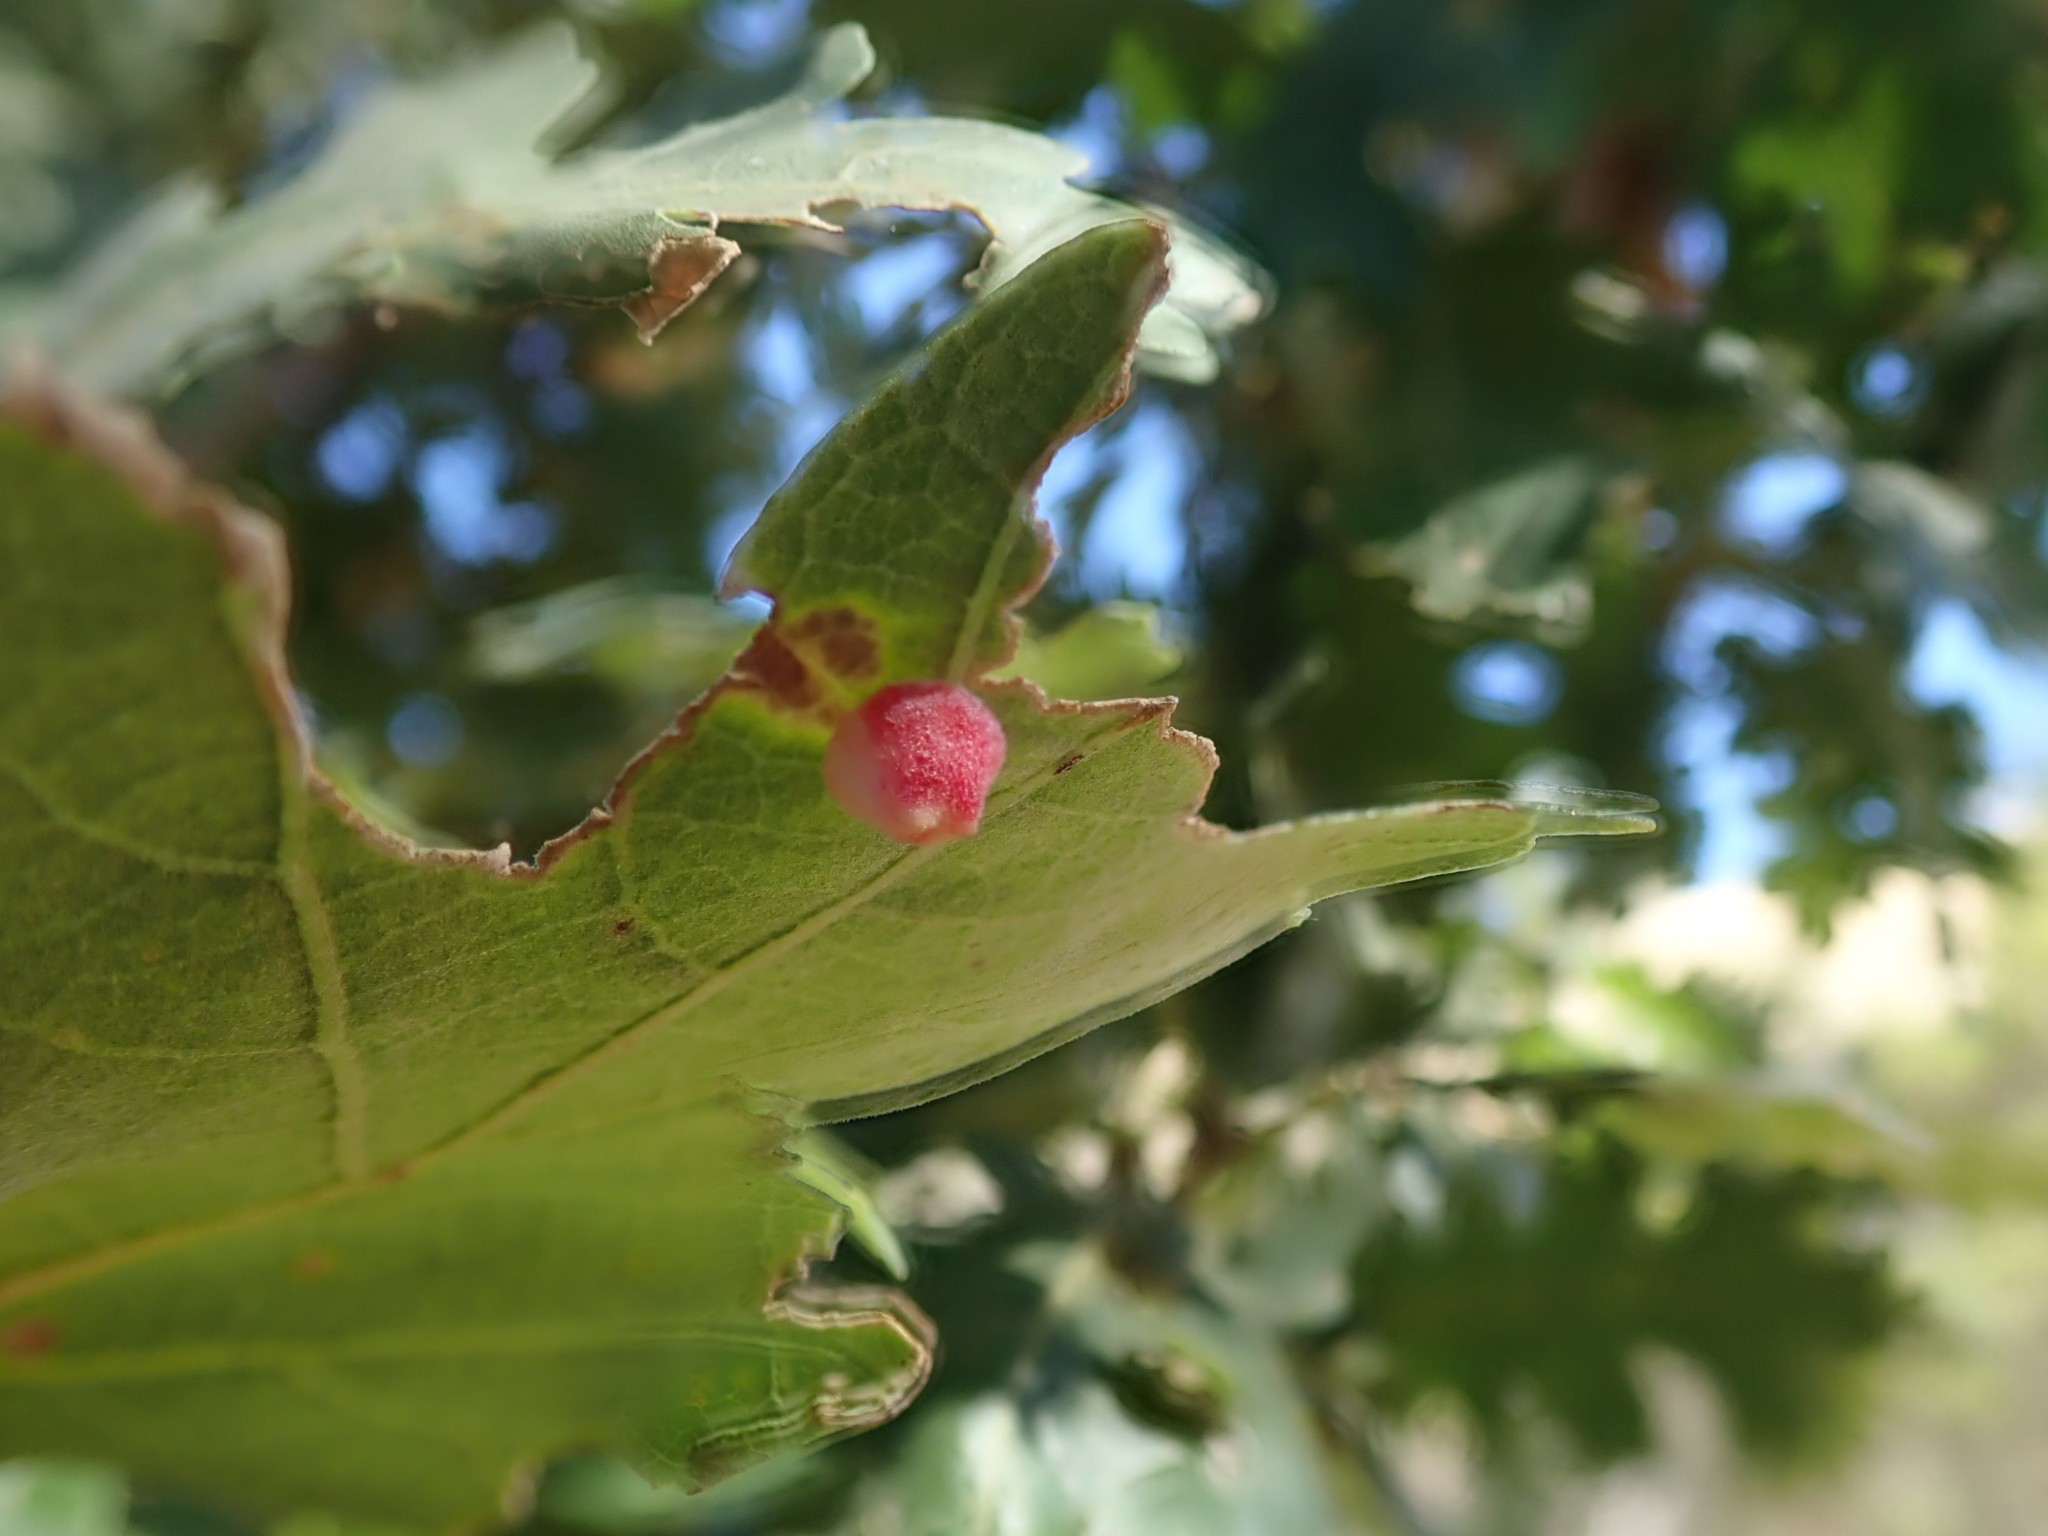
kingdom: Animalia
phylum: Arthropoda
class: Insecta
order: Hymenoptera
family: Cynipidae
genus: Andricus
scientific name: Andricus
